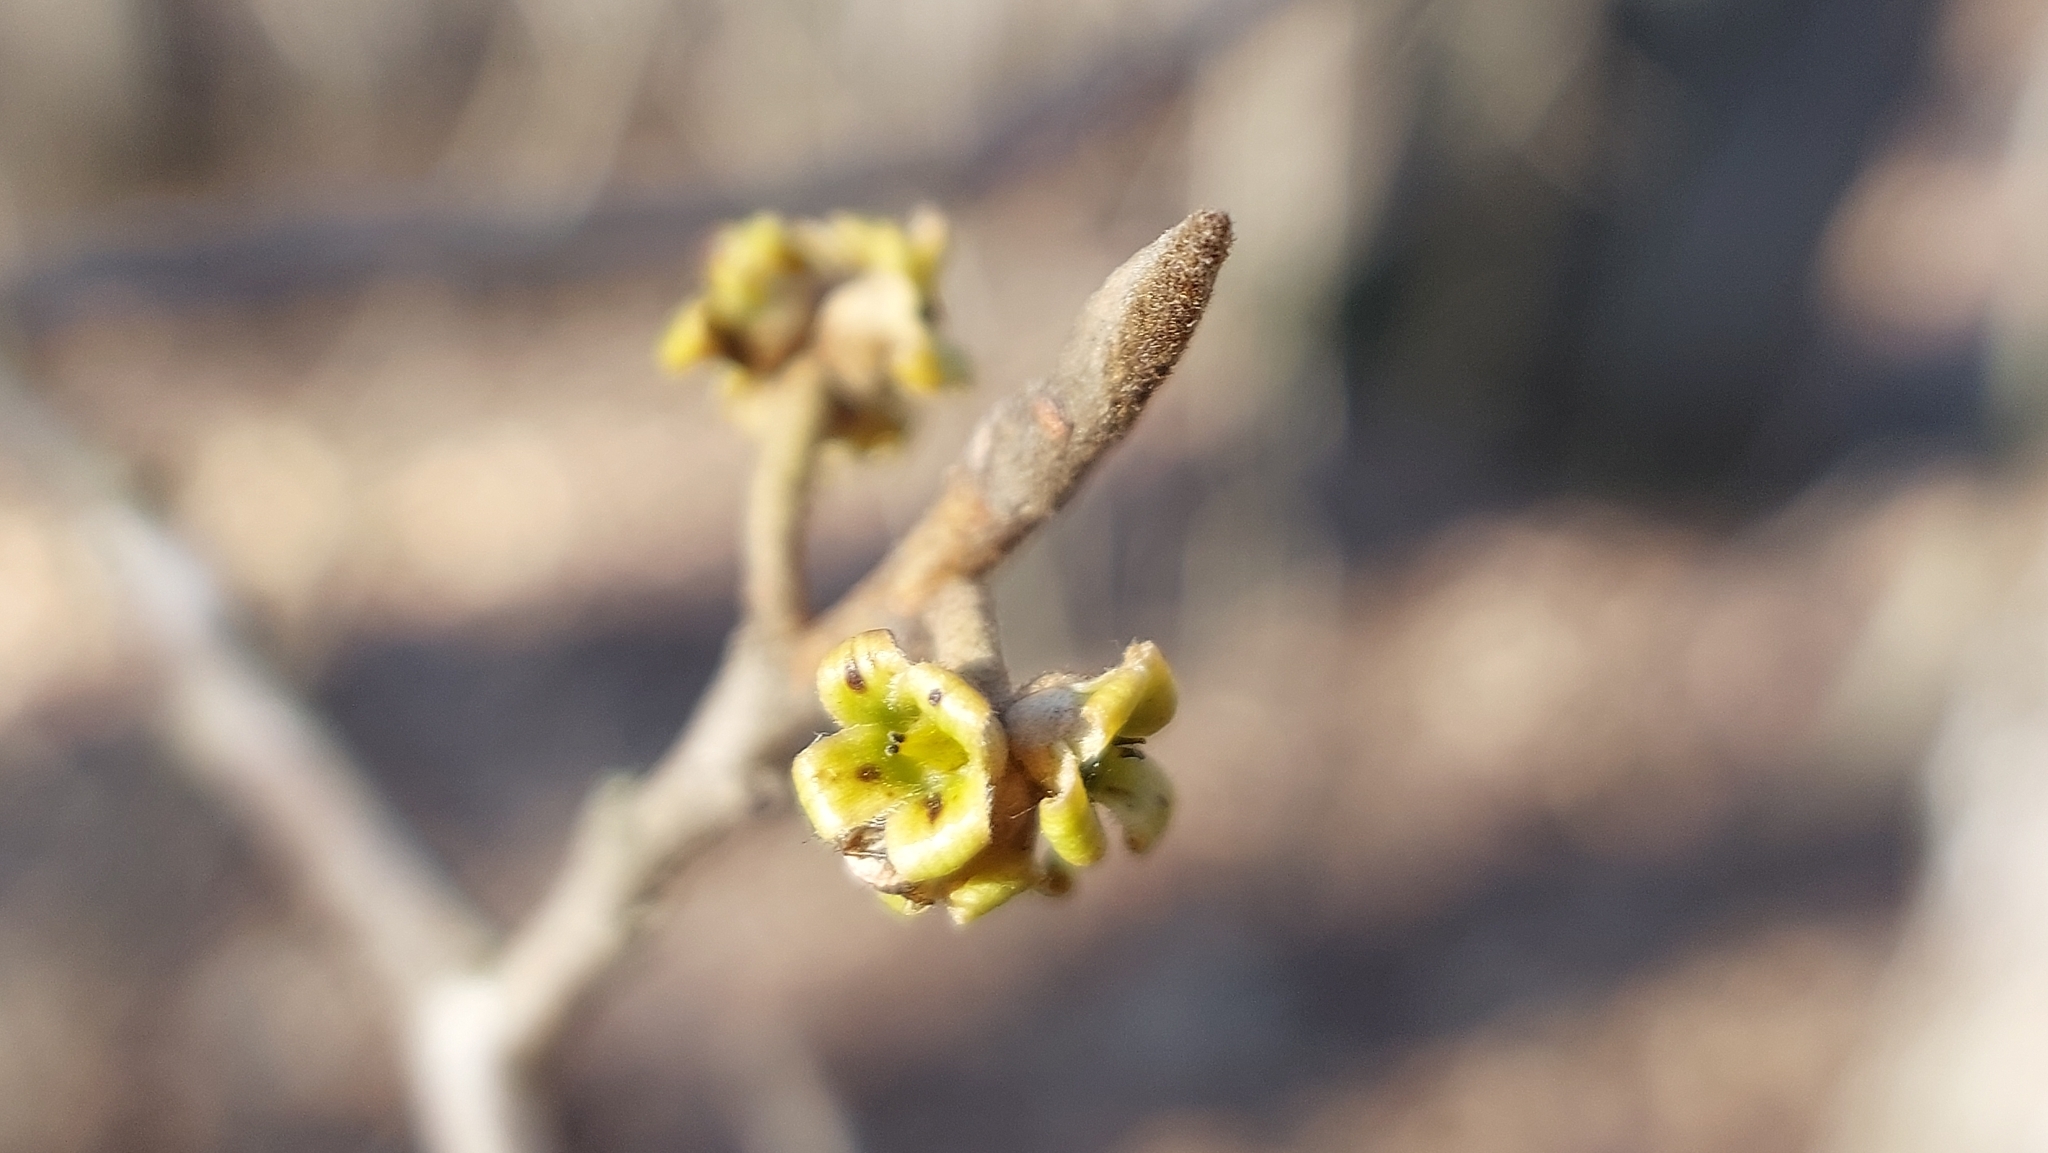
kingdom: Plantae
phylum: Tracheophyta
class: Magnoliopsida
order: Saxifragales
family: Hamamelidaceae
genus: Hamamelis
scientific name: Hamamelis virginiana
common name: Witch-hazel
